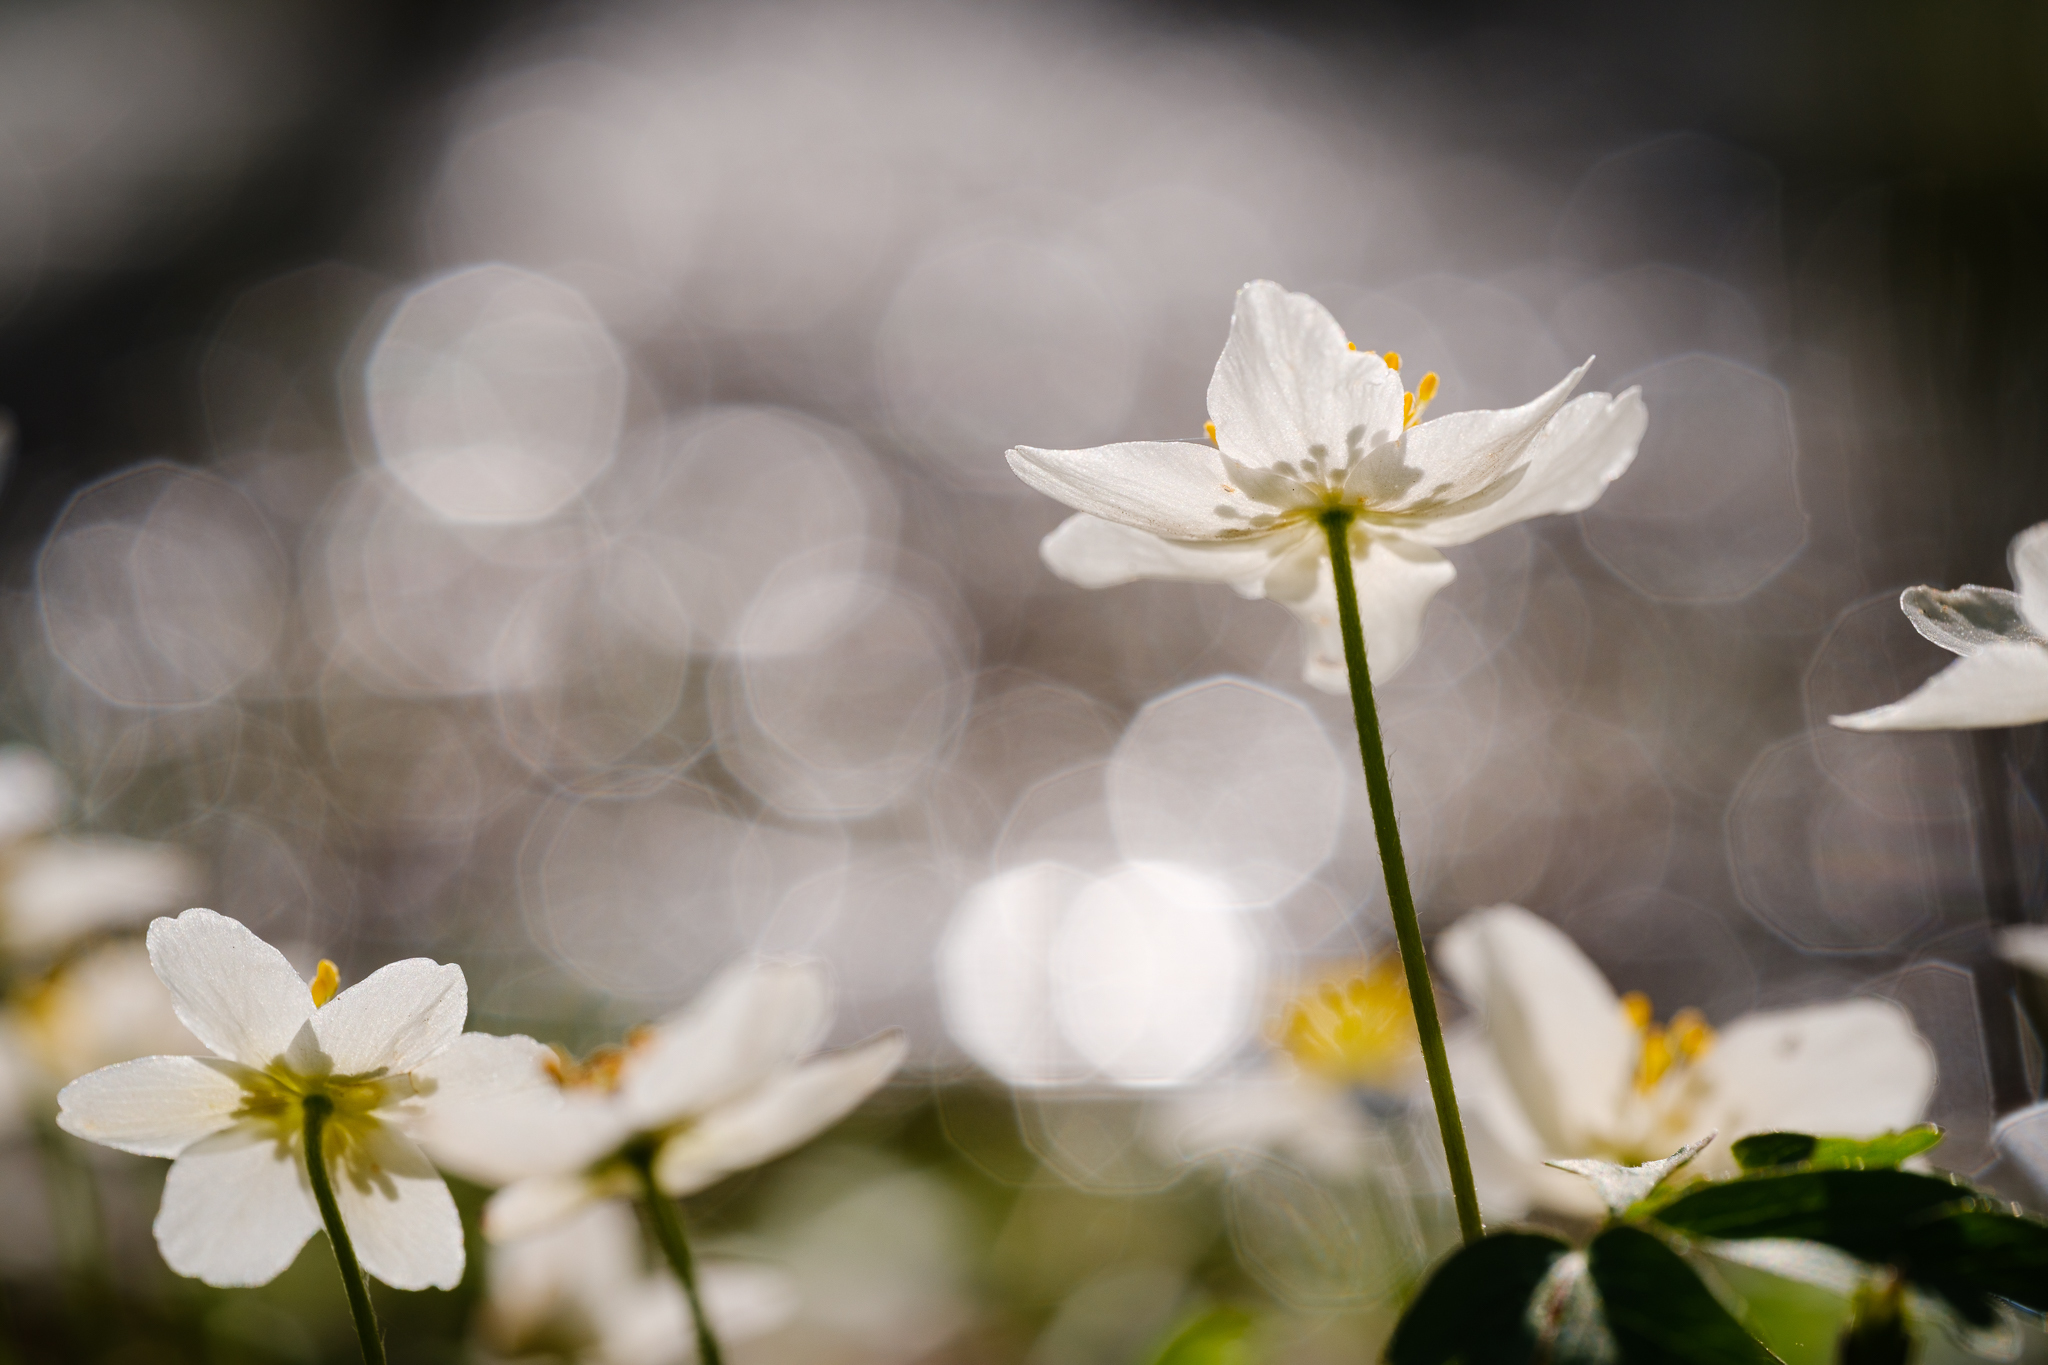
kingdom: Plantae
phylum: Tracheophyta
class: Magnoliopsida
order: Ranunculales
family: Ranunculaceae
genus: Anemone
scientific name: Anemone nemorosa
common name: Wood anemone
